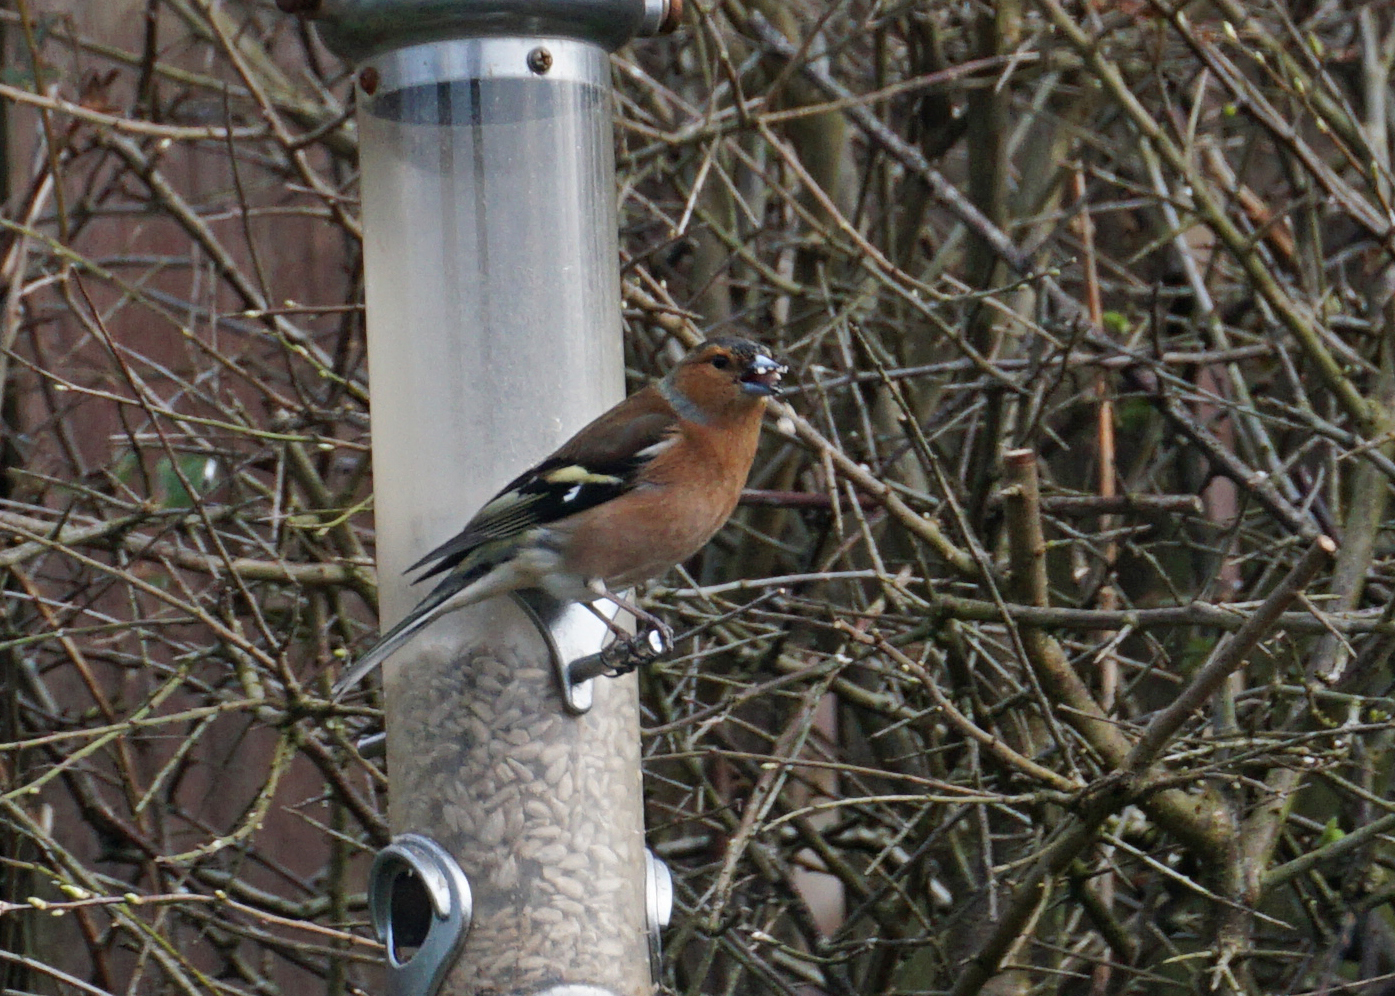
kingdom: Animalia
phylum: Chordata
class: Aves
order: Passeriformes
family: Fringillidae
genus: Fringilla
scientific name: Fringilla coelebs
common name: Common chaffinch
